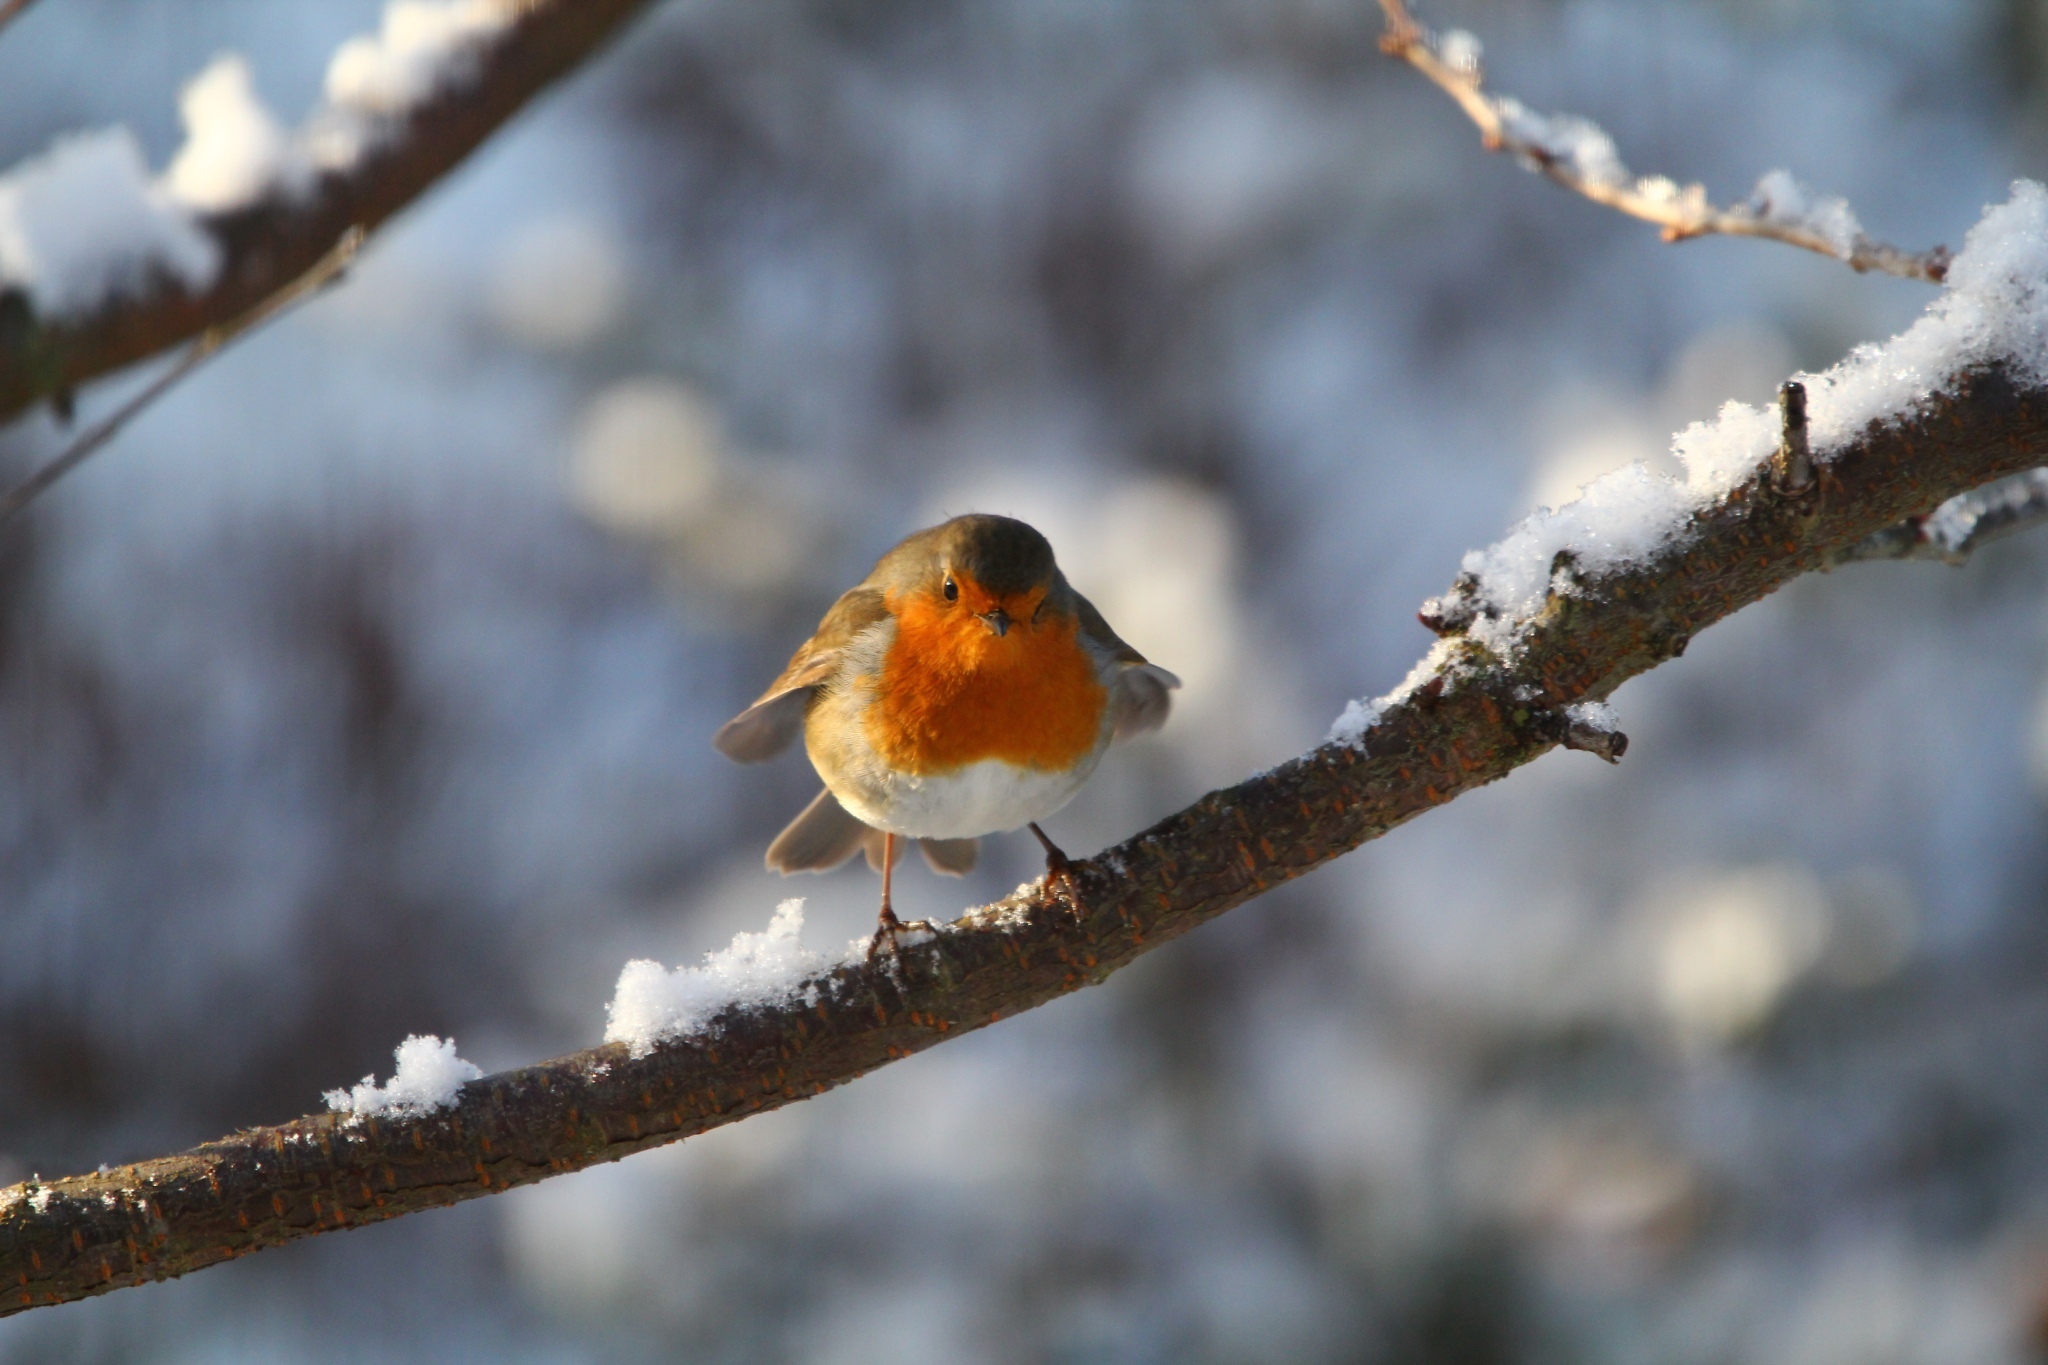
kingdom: Animalia
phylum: Chordata
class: Aves
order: Passeriformes
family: Muscicapidae
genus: Erithacus
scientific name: Erithacus rubecula
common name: European robin
